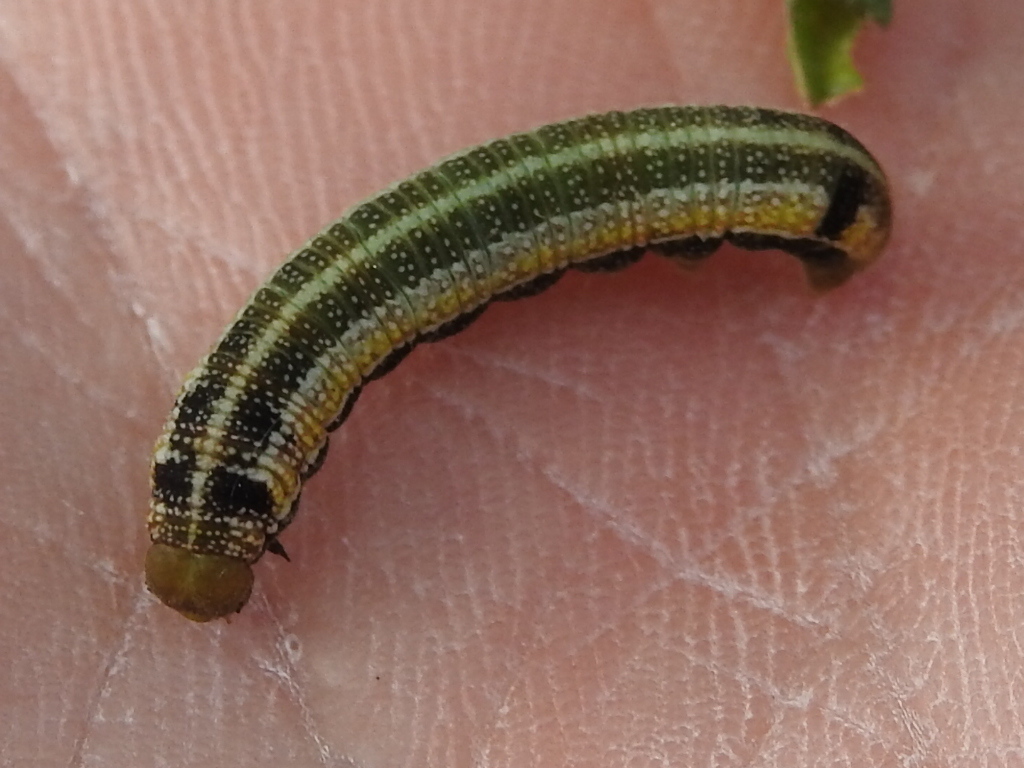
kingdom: Animalia
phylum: Arthropoda
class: Insecta
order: Lepidoptera
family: Nymphalidae
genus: Libytheana
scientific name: Libytheana carinenta
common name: American snout
